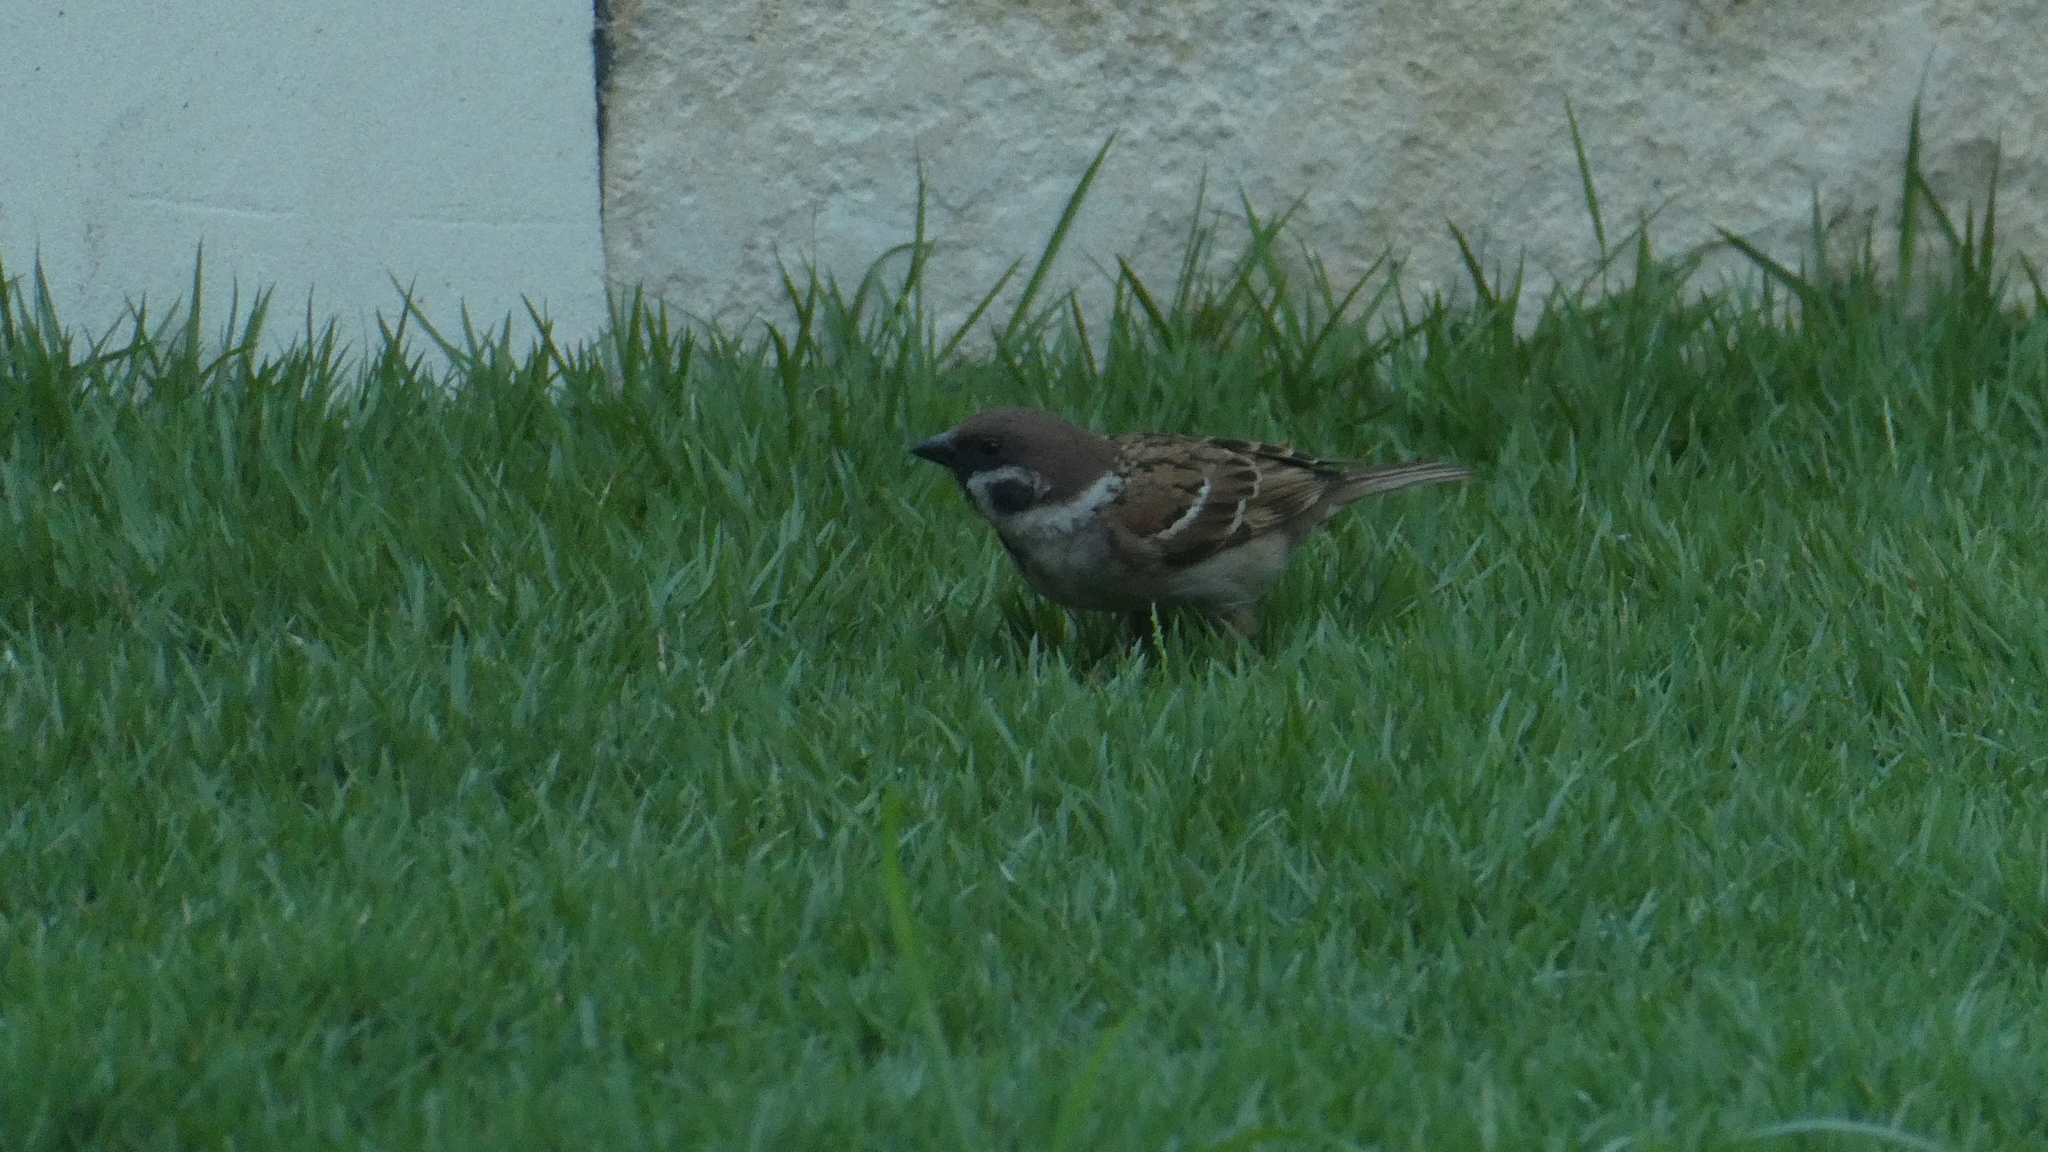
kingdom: Animalia
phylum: Chordata
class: Aves
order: Passeriformes
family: Passeridae
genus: Passer
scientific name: Passer montanus
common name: Eurasian tree sparrow
